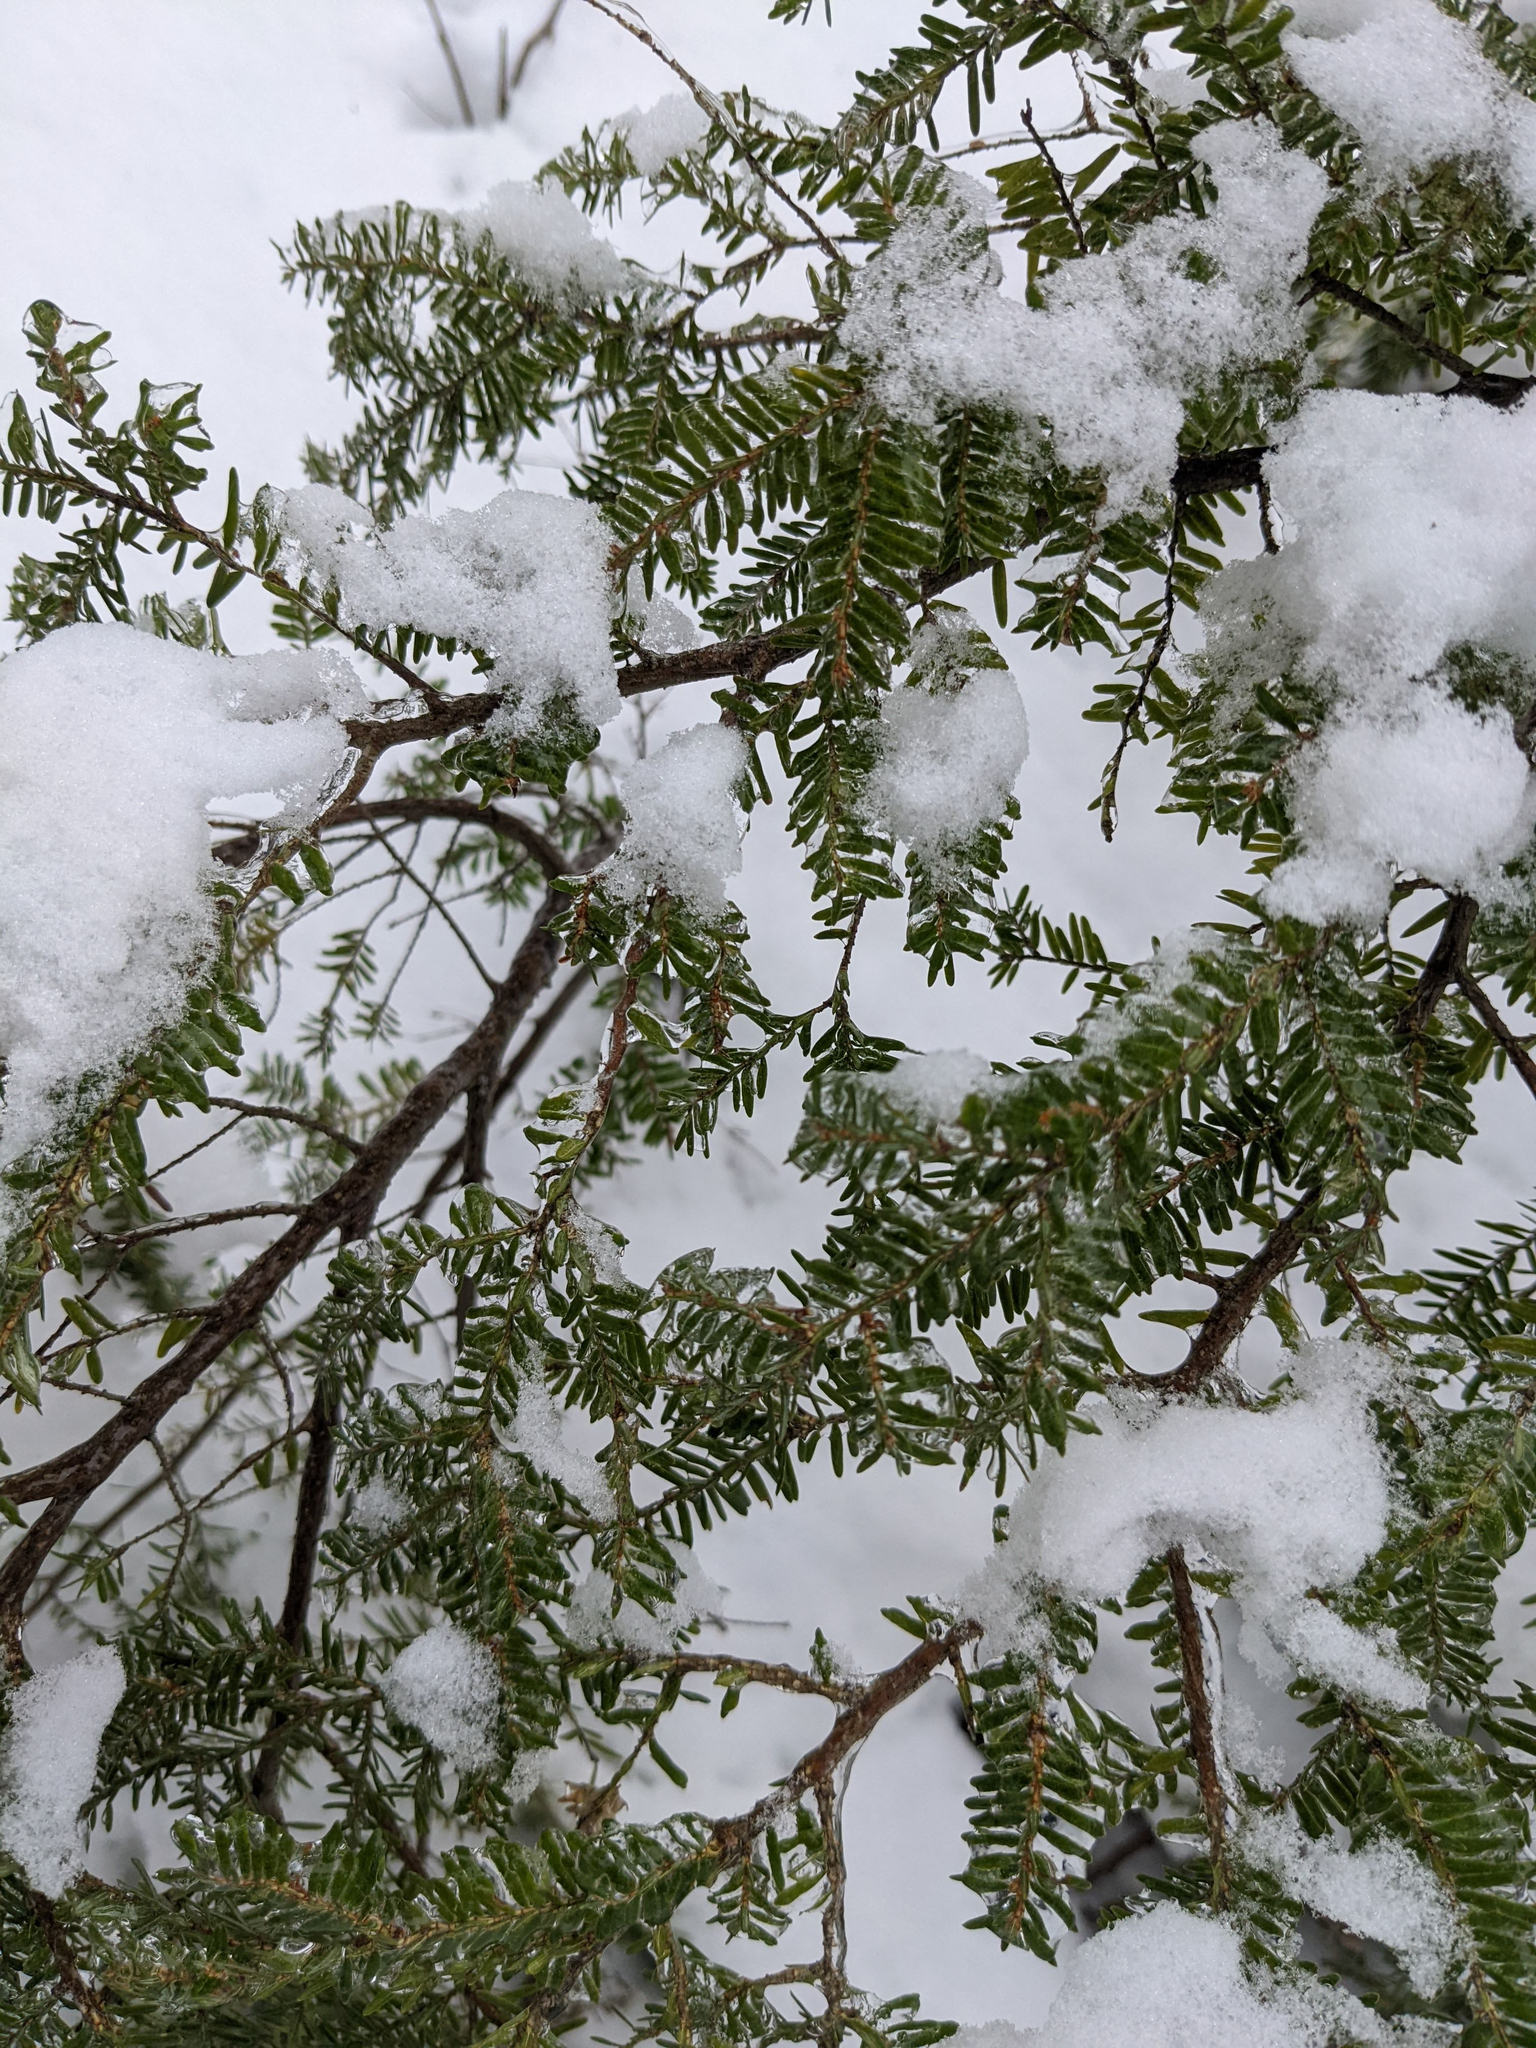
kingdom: Plantae
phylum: Tracheophyta
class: Pinopsida
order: Pinales
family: Pinaceae
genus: Tsuga
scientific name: Tsuga canadensis
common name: Eastern hemlock
